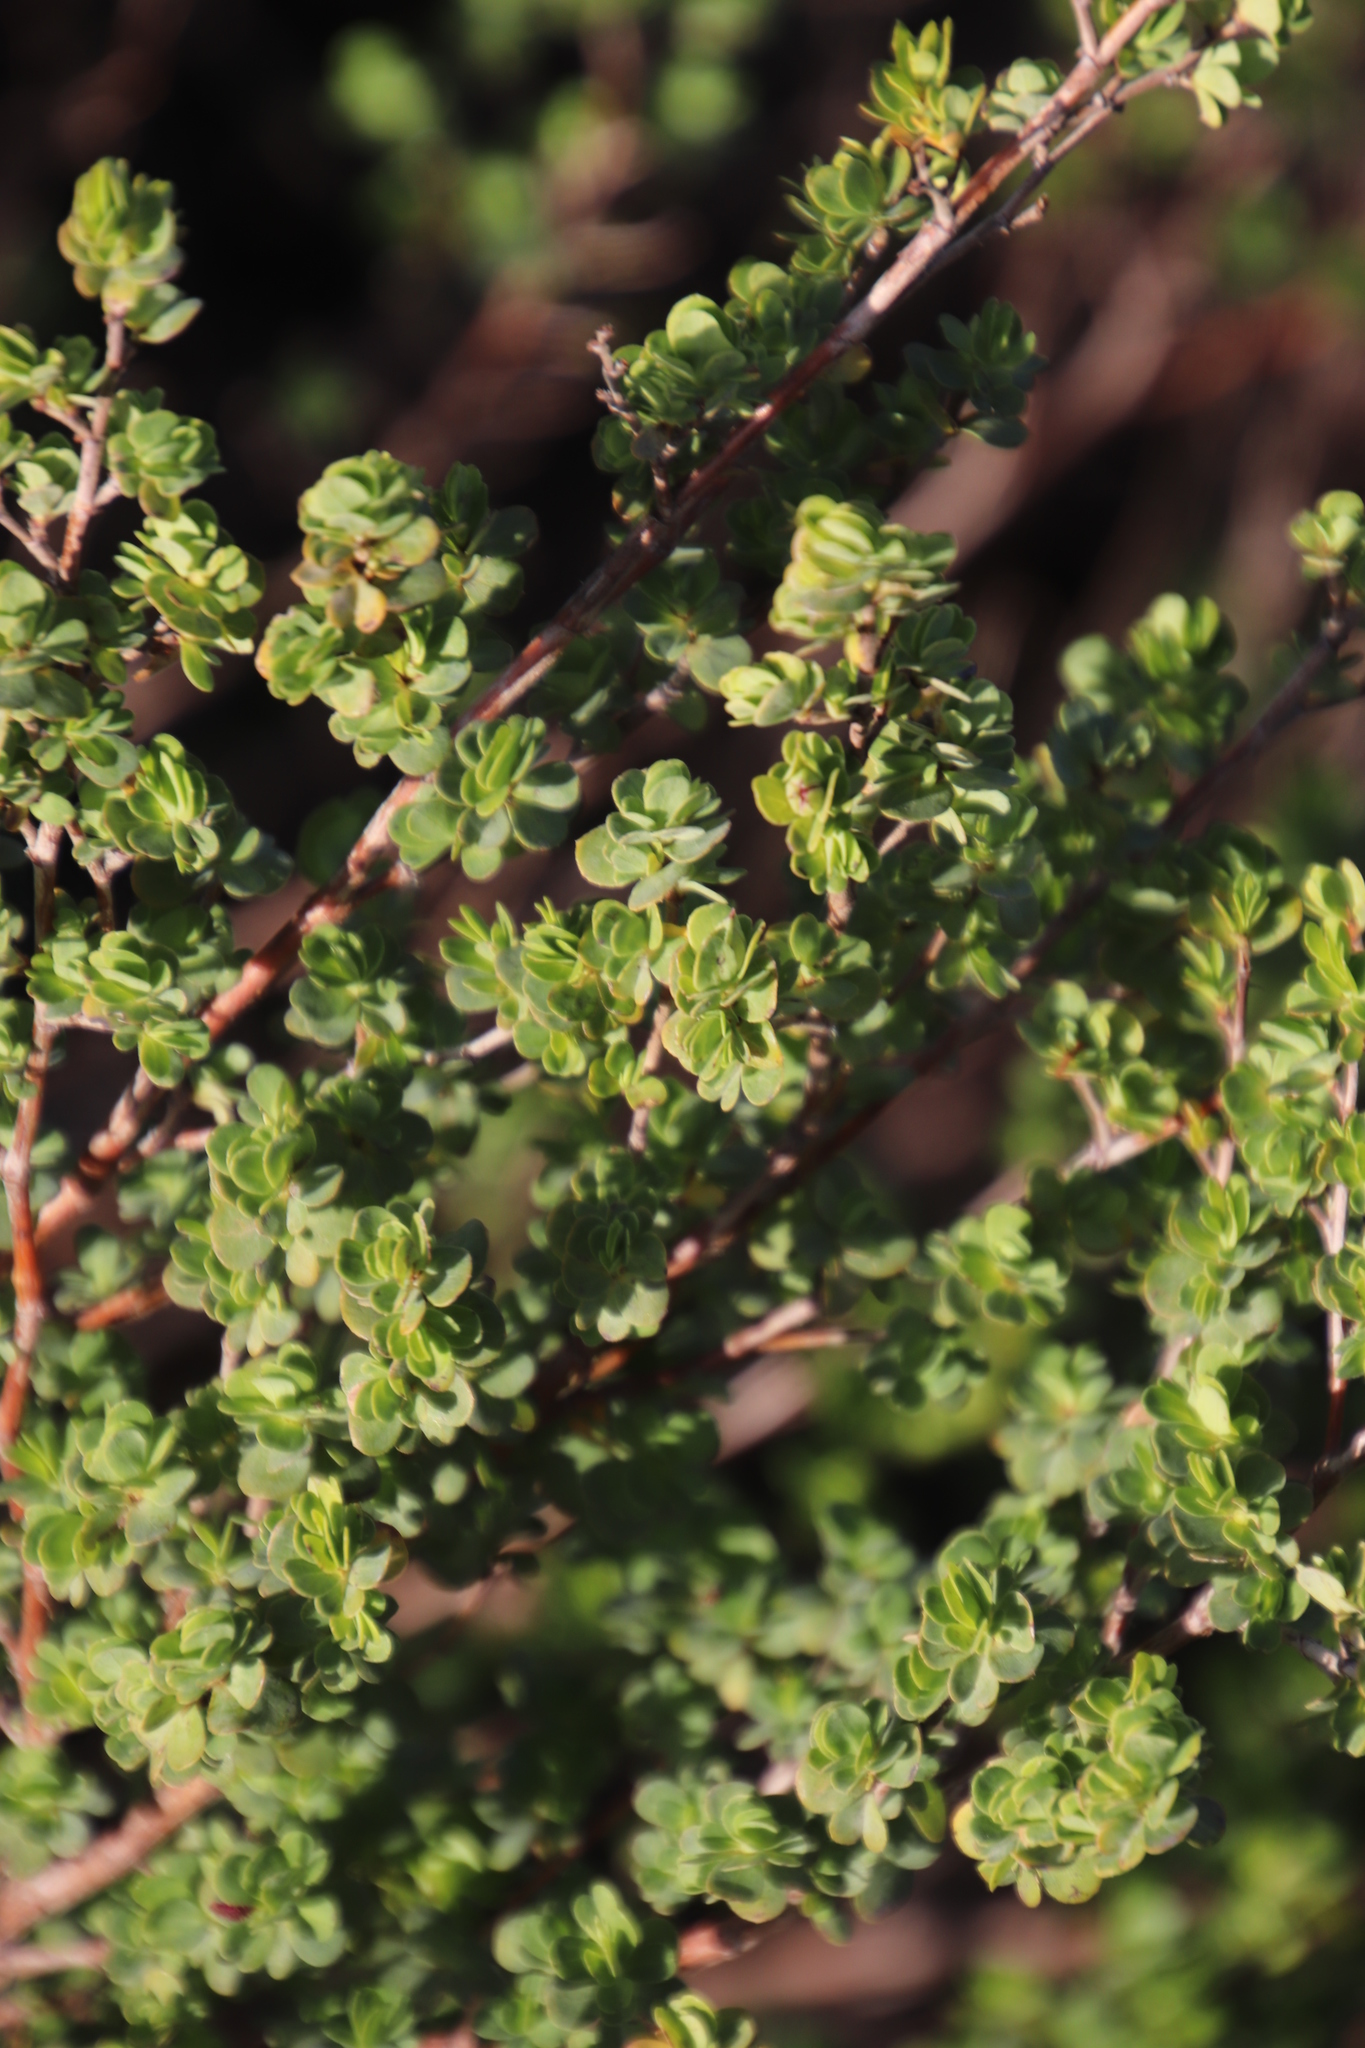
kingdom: Plantae
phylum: Tracheophyta
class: Magnoliopsida
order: Rosales
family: Rosaceae
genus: Cliffortia
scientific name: Cliffortia obcordata
